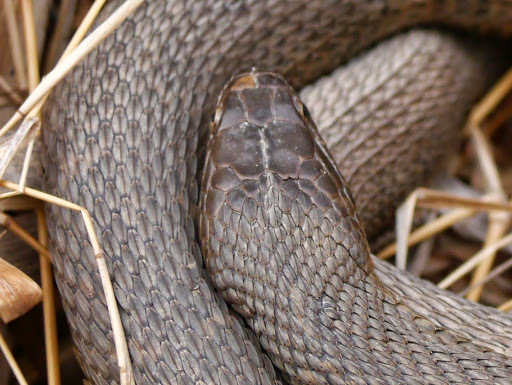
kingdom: Animalia
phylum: Chordata
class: Squamata
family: Colubridae
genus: Nerodia
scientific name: Nerodia sipedon
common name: Northern water snake
